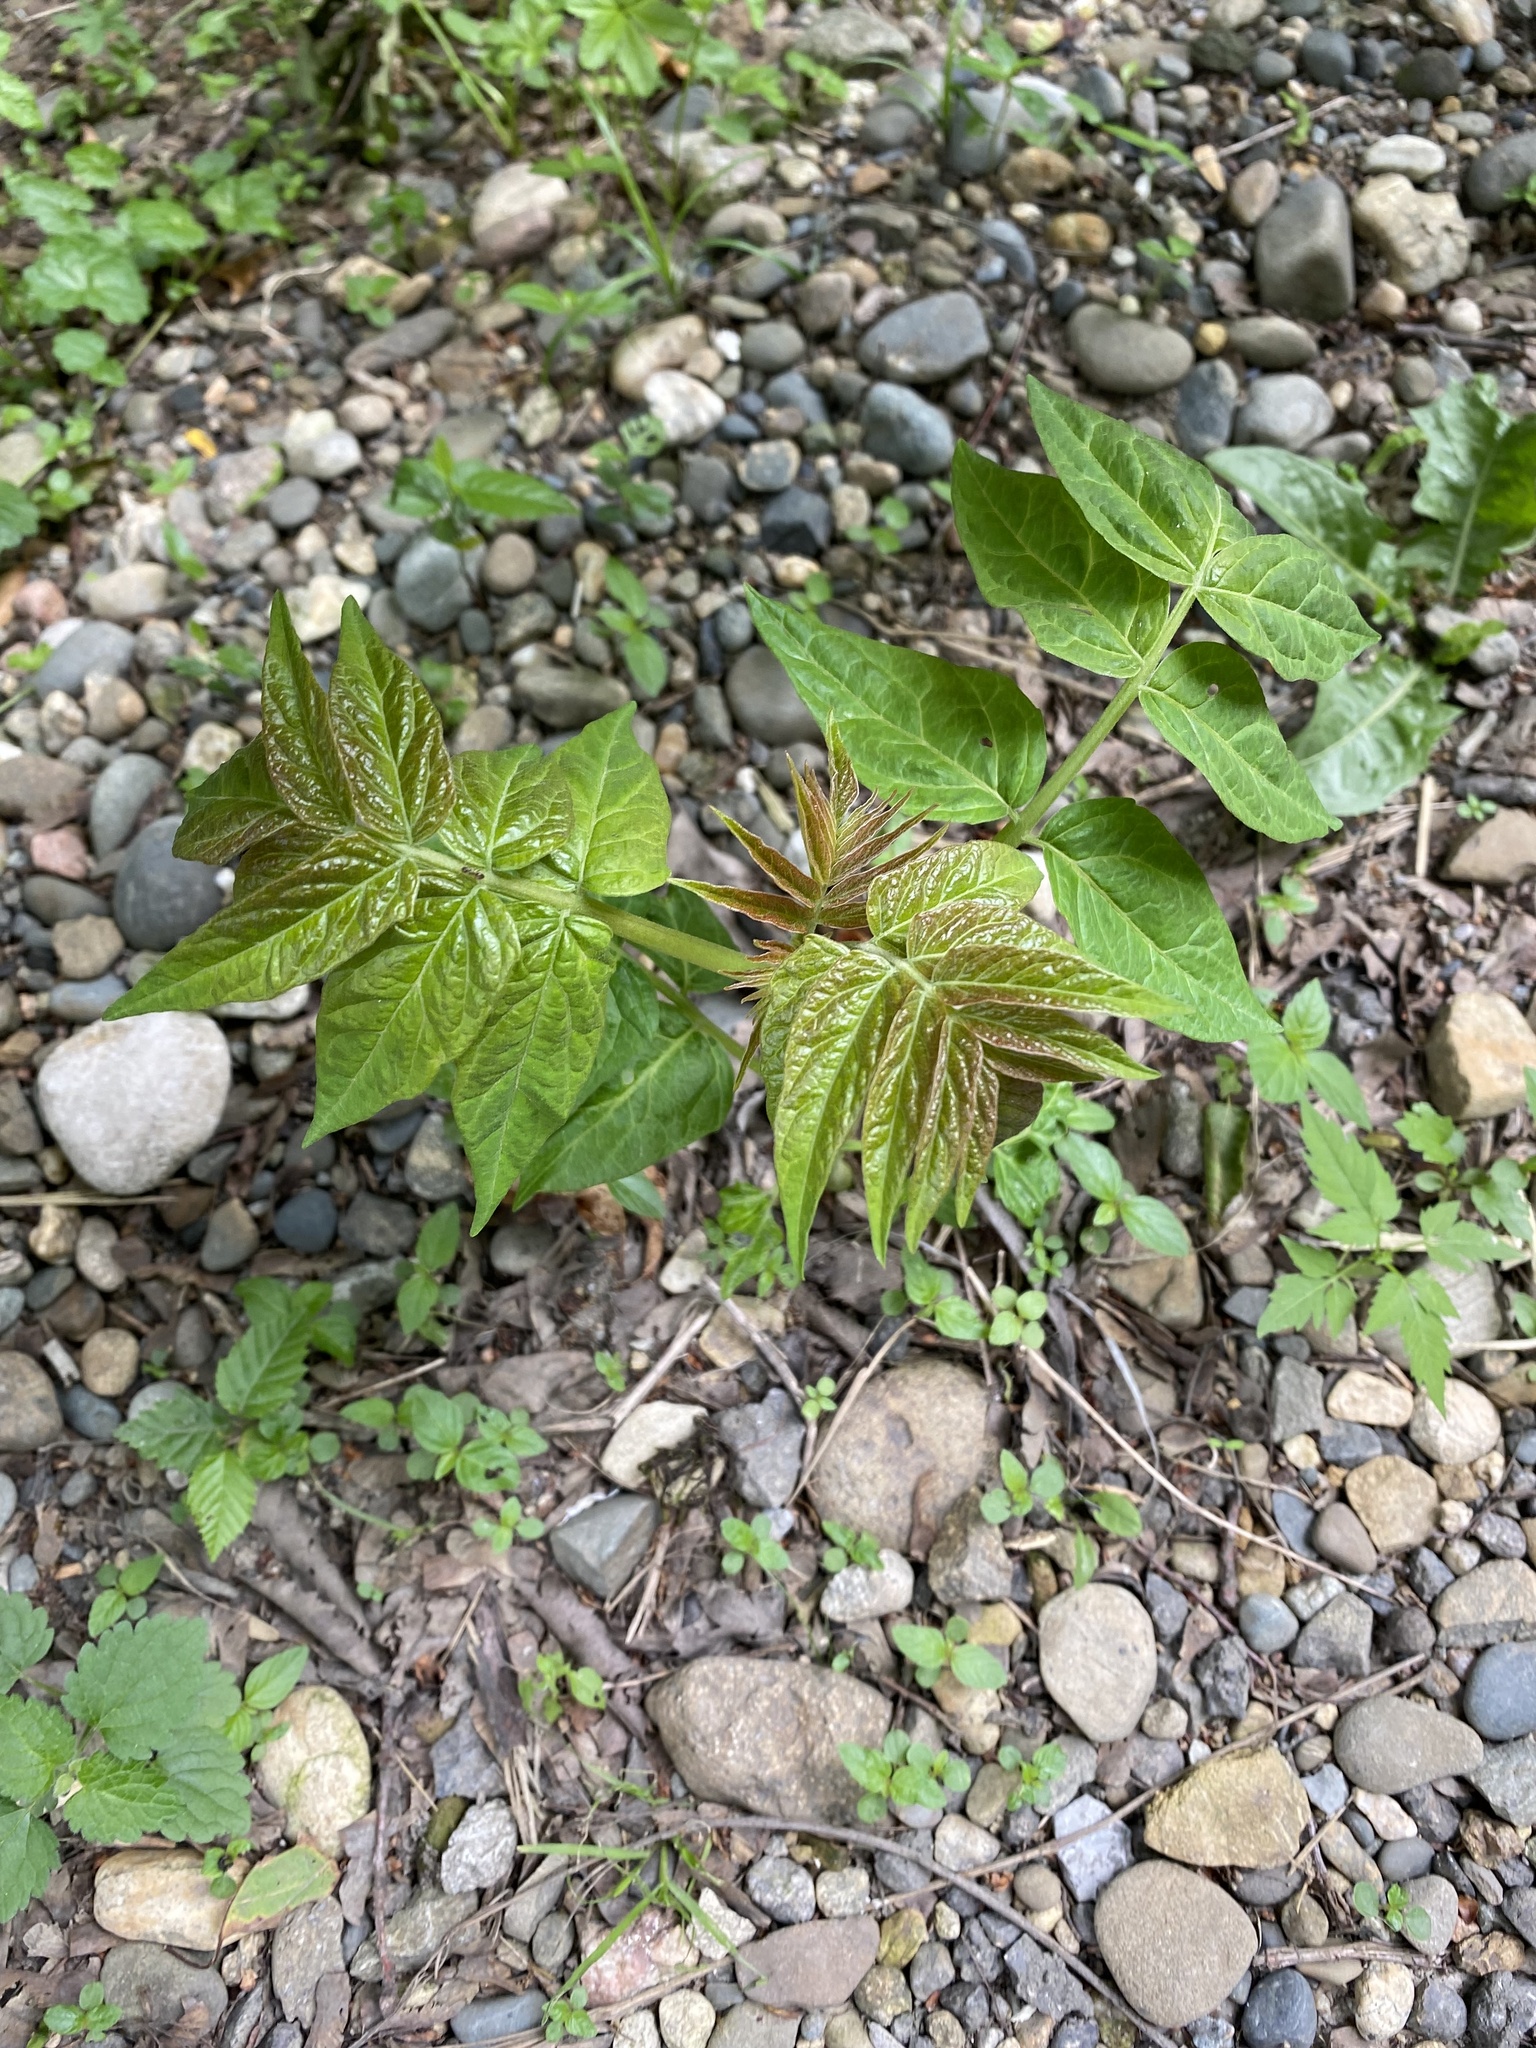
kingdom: Plantae
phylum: Tracheophyta
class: Magnoliopsida
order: Sapindales
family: Simaroubaceae
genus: Ailanthus
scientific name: Ailanthus altissima
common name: Tree-of-heaven
